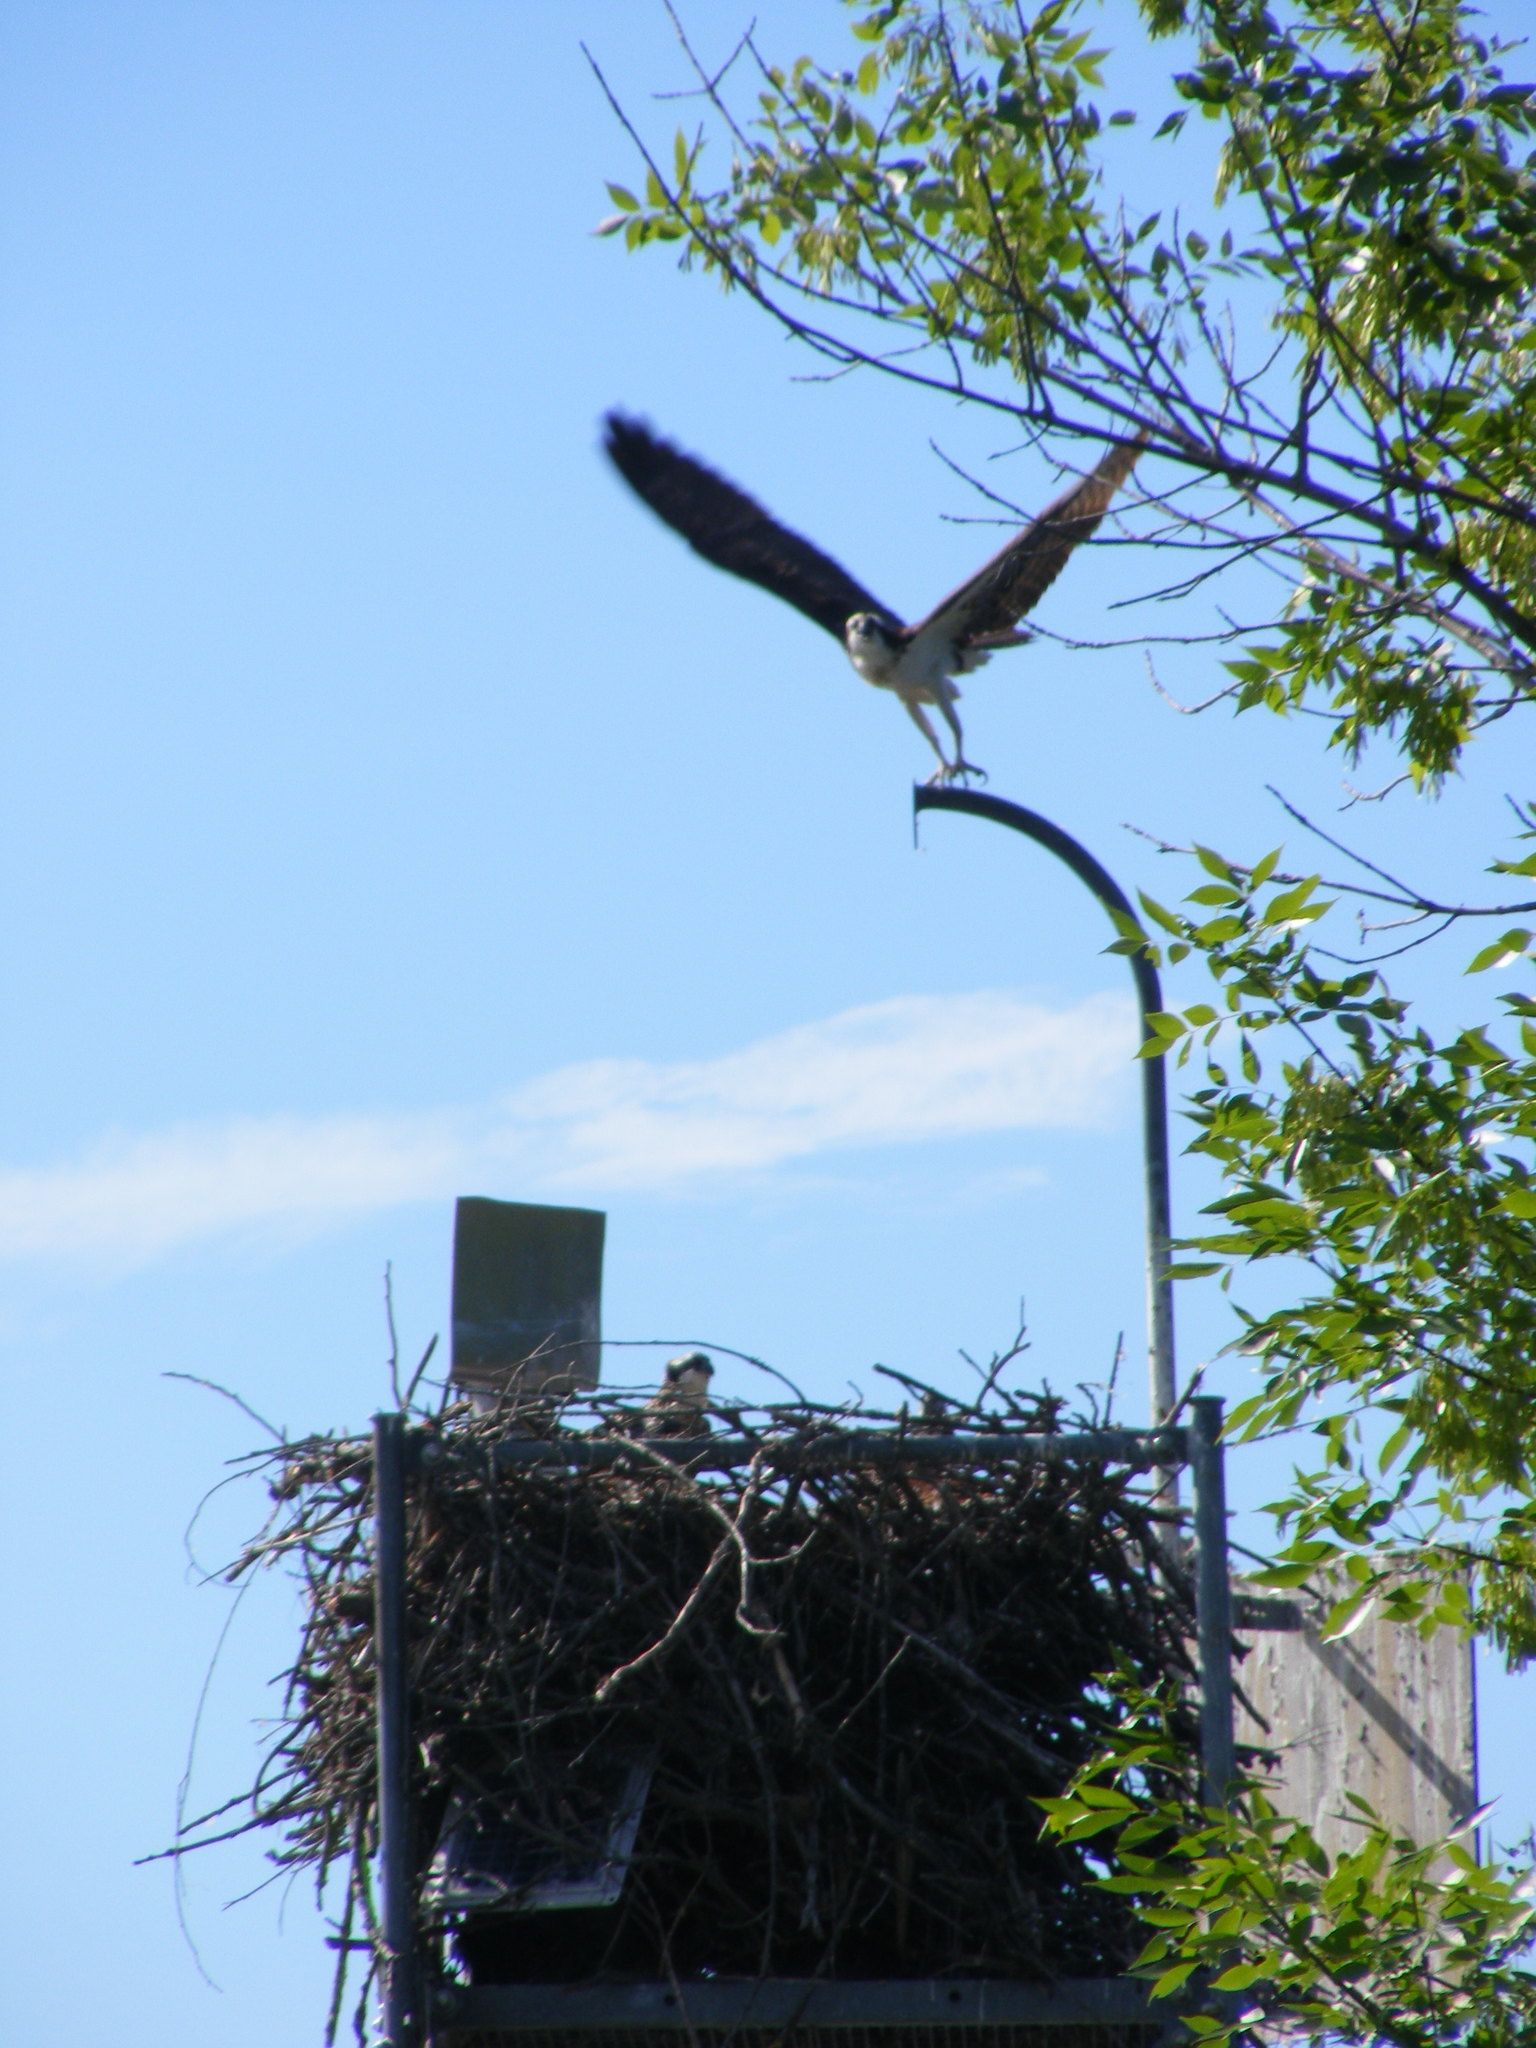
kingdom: Animalia
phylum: Chordata
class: Aves
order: Accipitriformes
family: Pandionidae
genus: Pandion
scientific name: Pandion haliaetus
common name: Osprey
